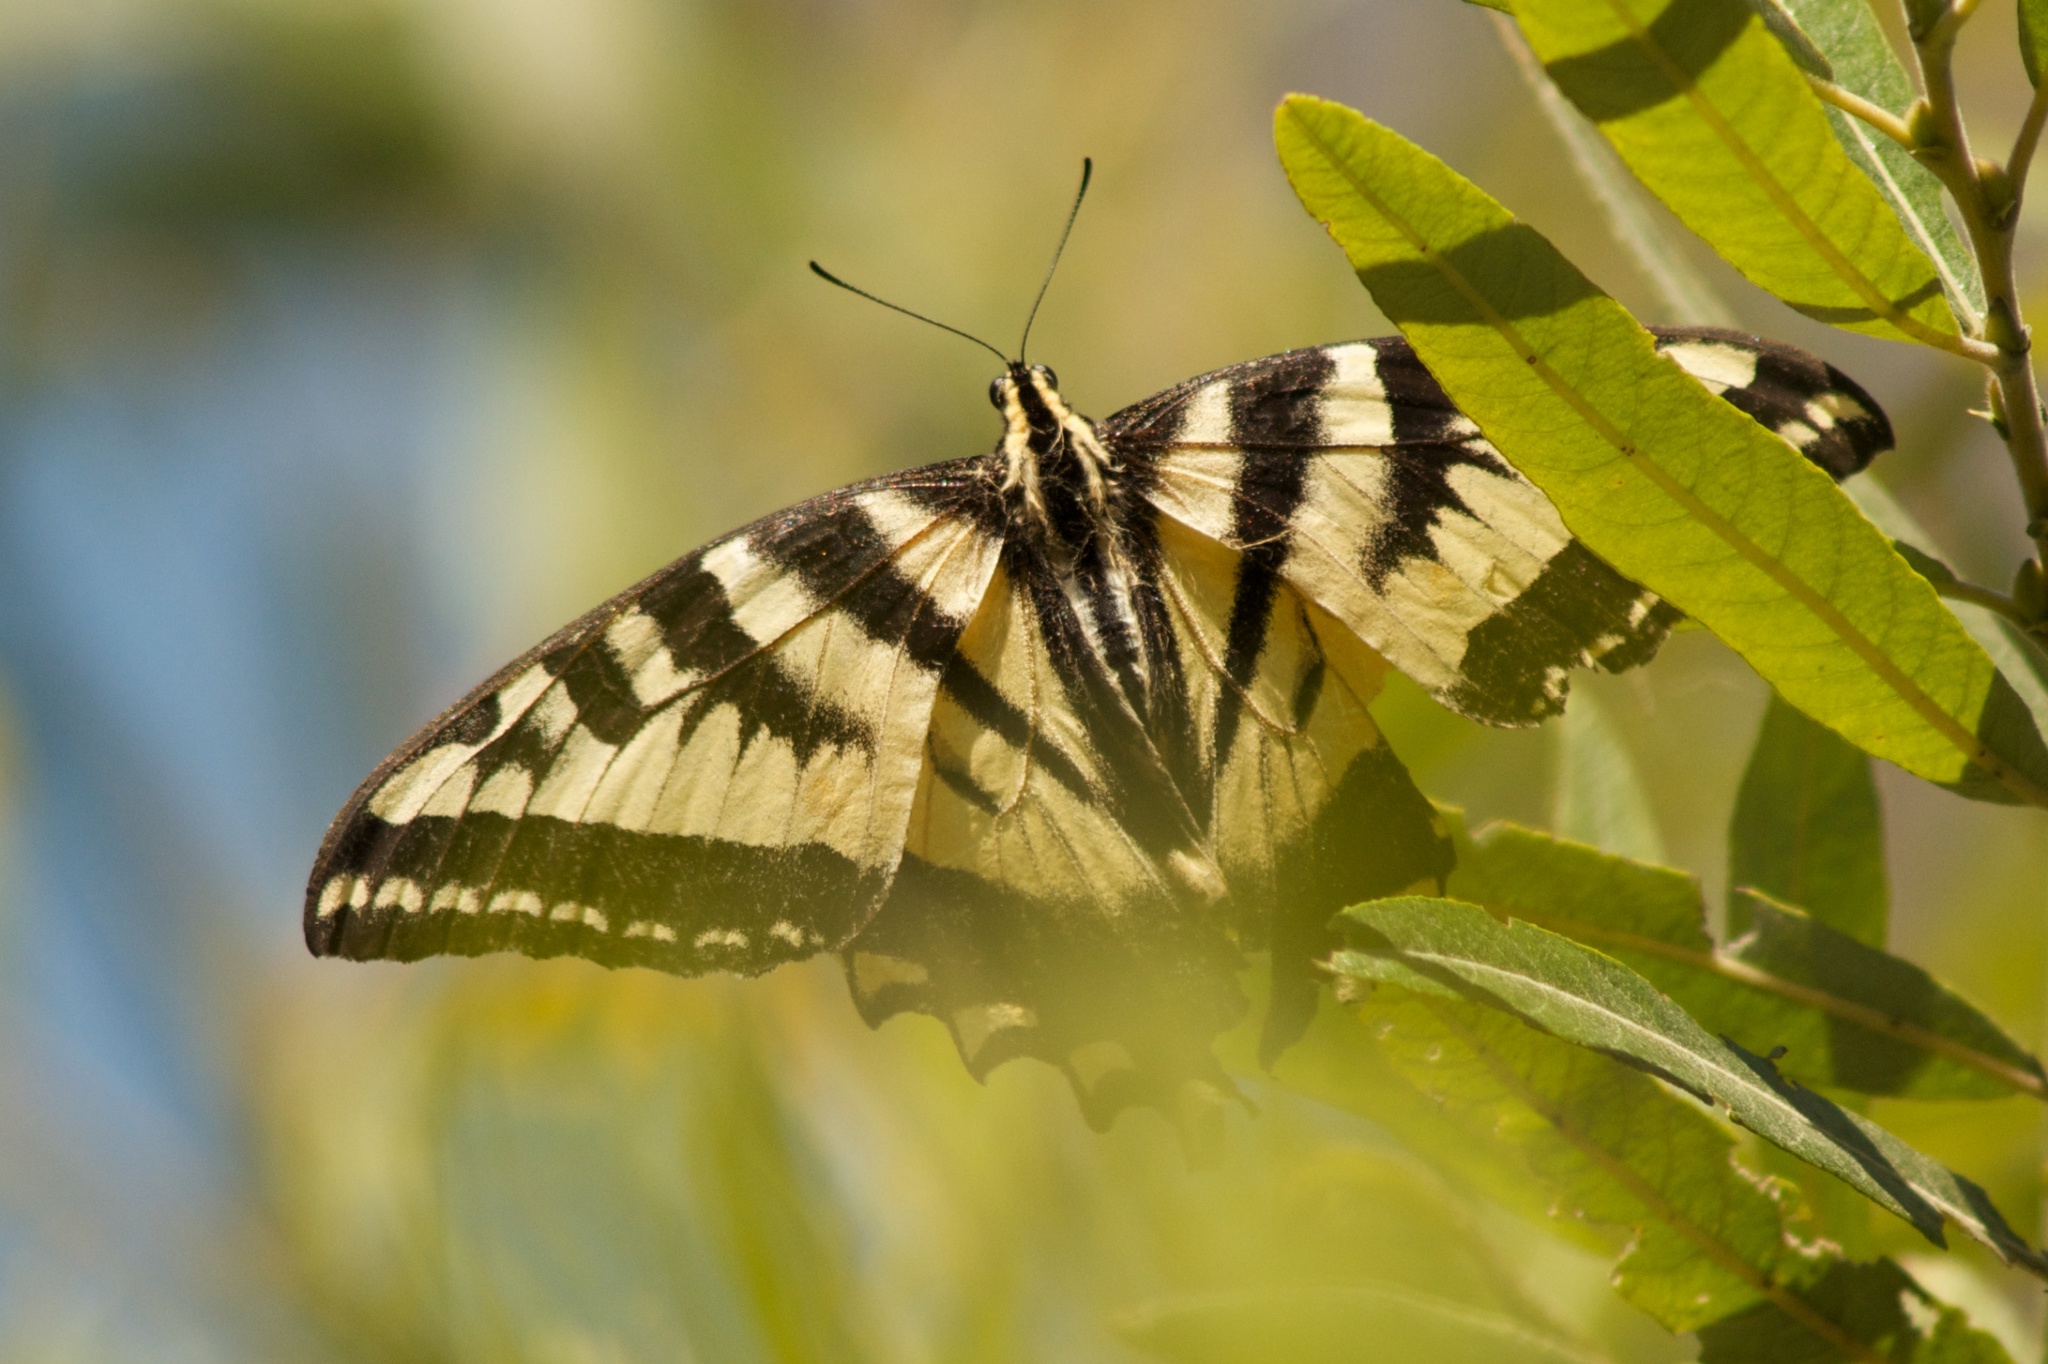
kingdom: Animalia
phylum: Arthropoda
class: Insecta
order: Lepidoptera
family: Papilionidae
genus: Papilio
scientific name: Papilio rutulus
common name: Western tiger swallowtail
